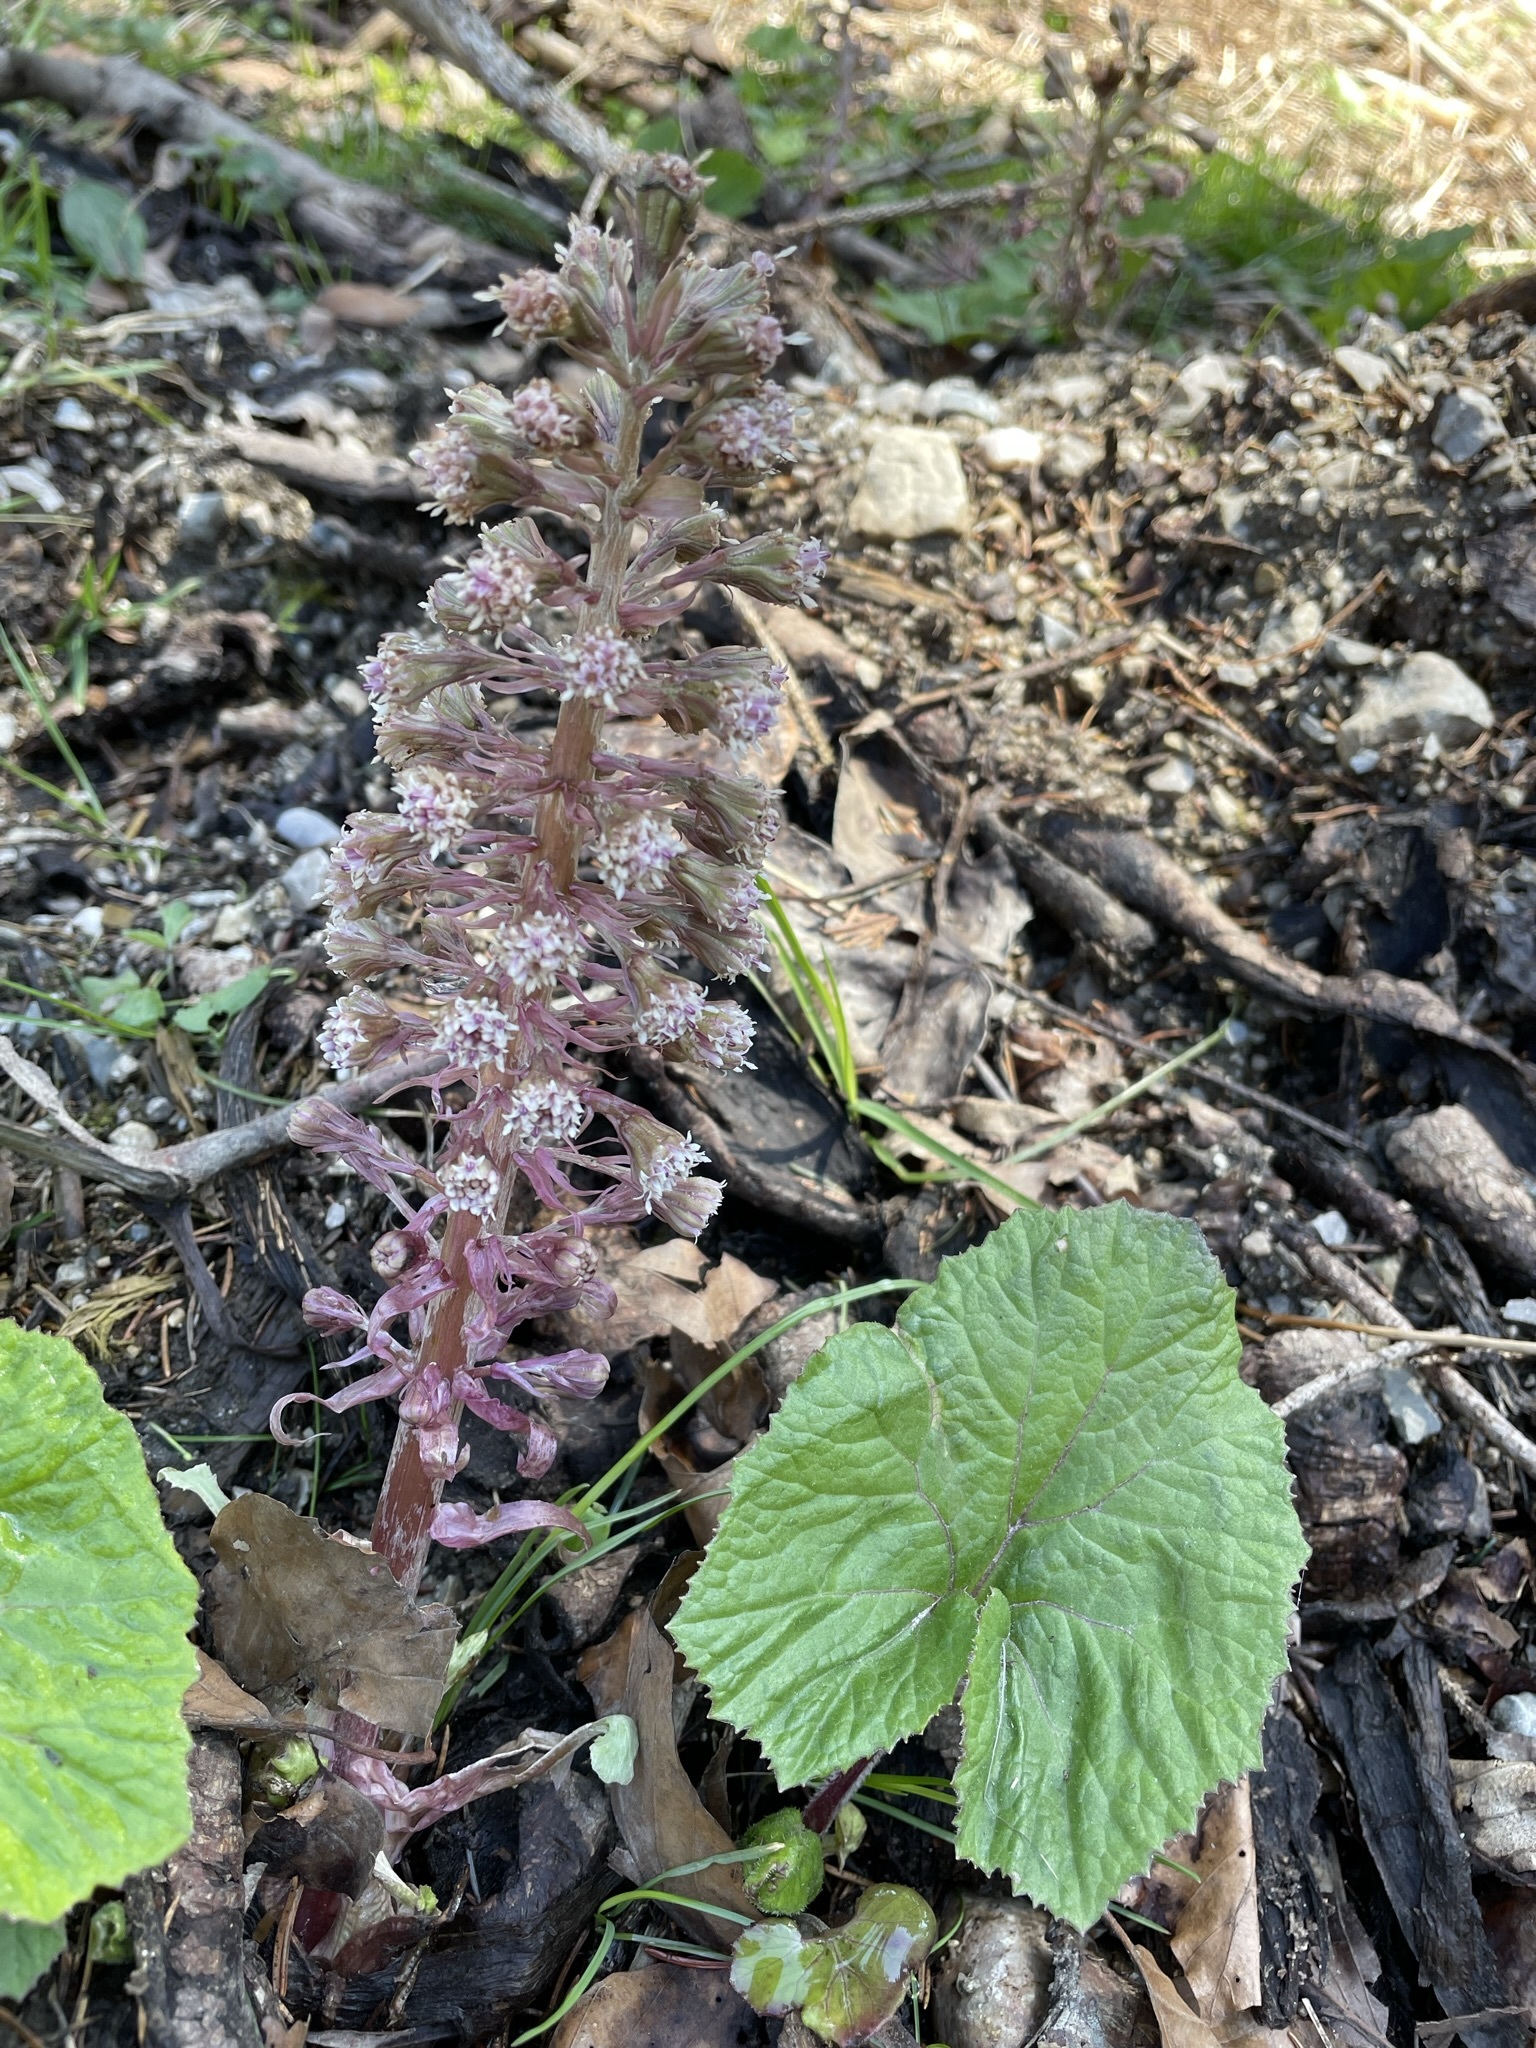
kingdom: Plantae
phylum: Tracheophyta
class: Magnoliopsida
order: Asterales
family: Asteraceae
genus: Petasites
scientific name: Petasites hybridus
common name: Butterbur
